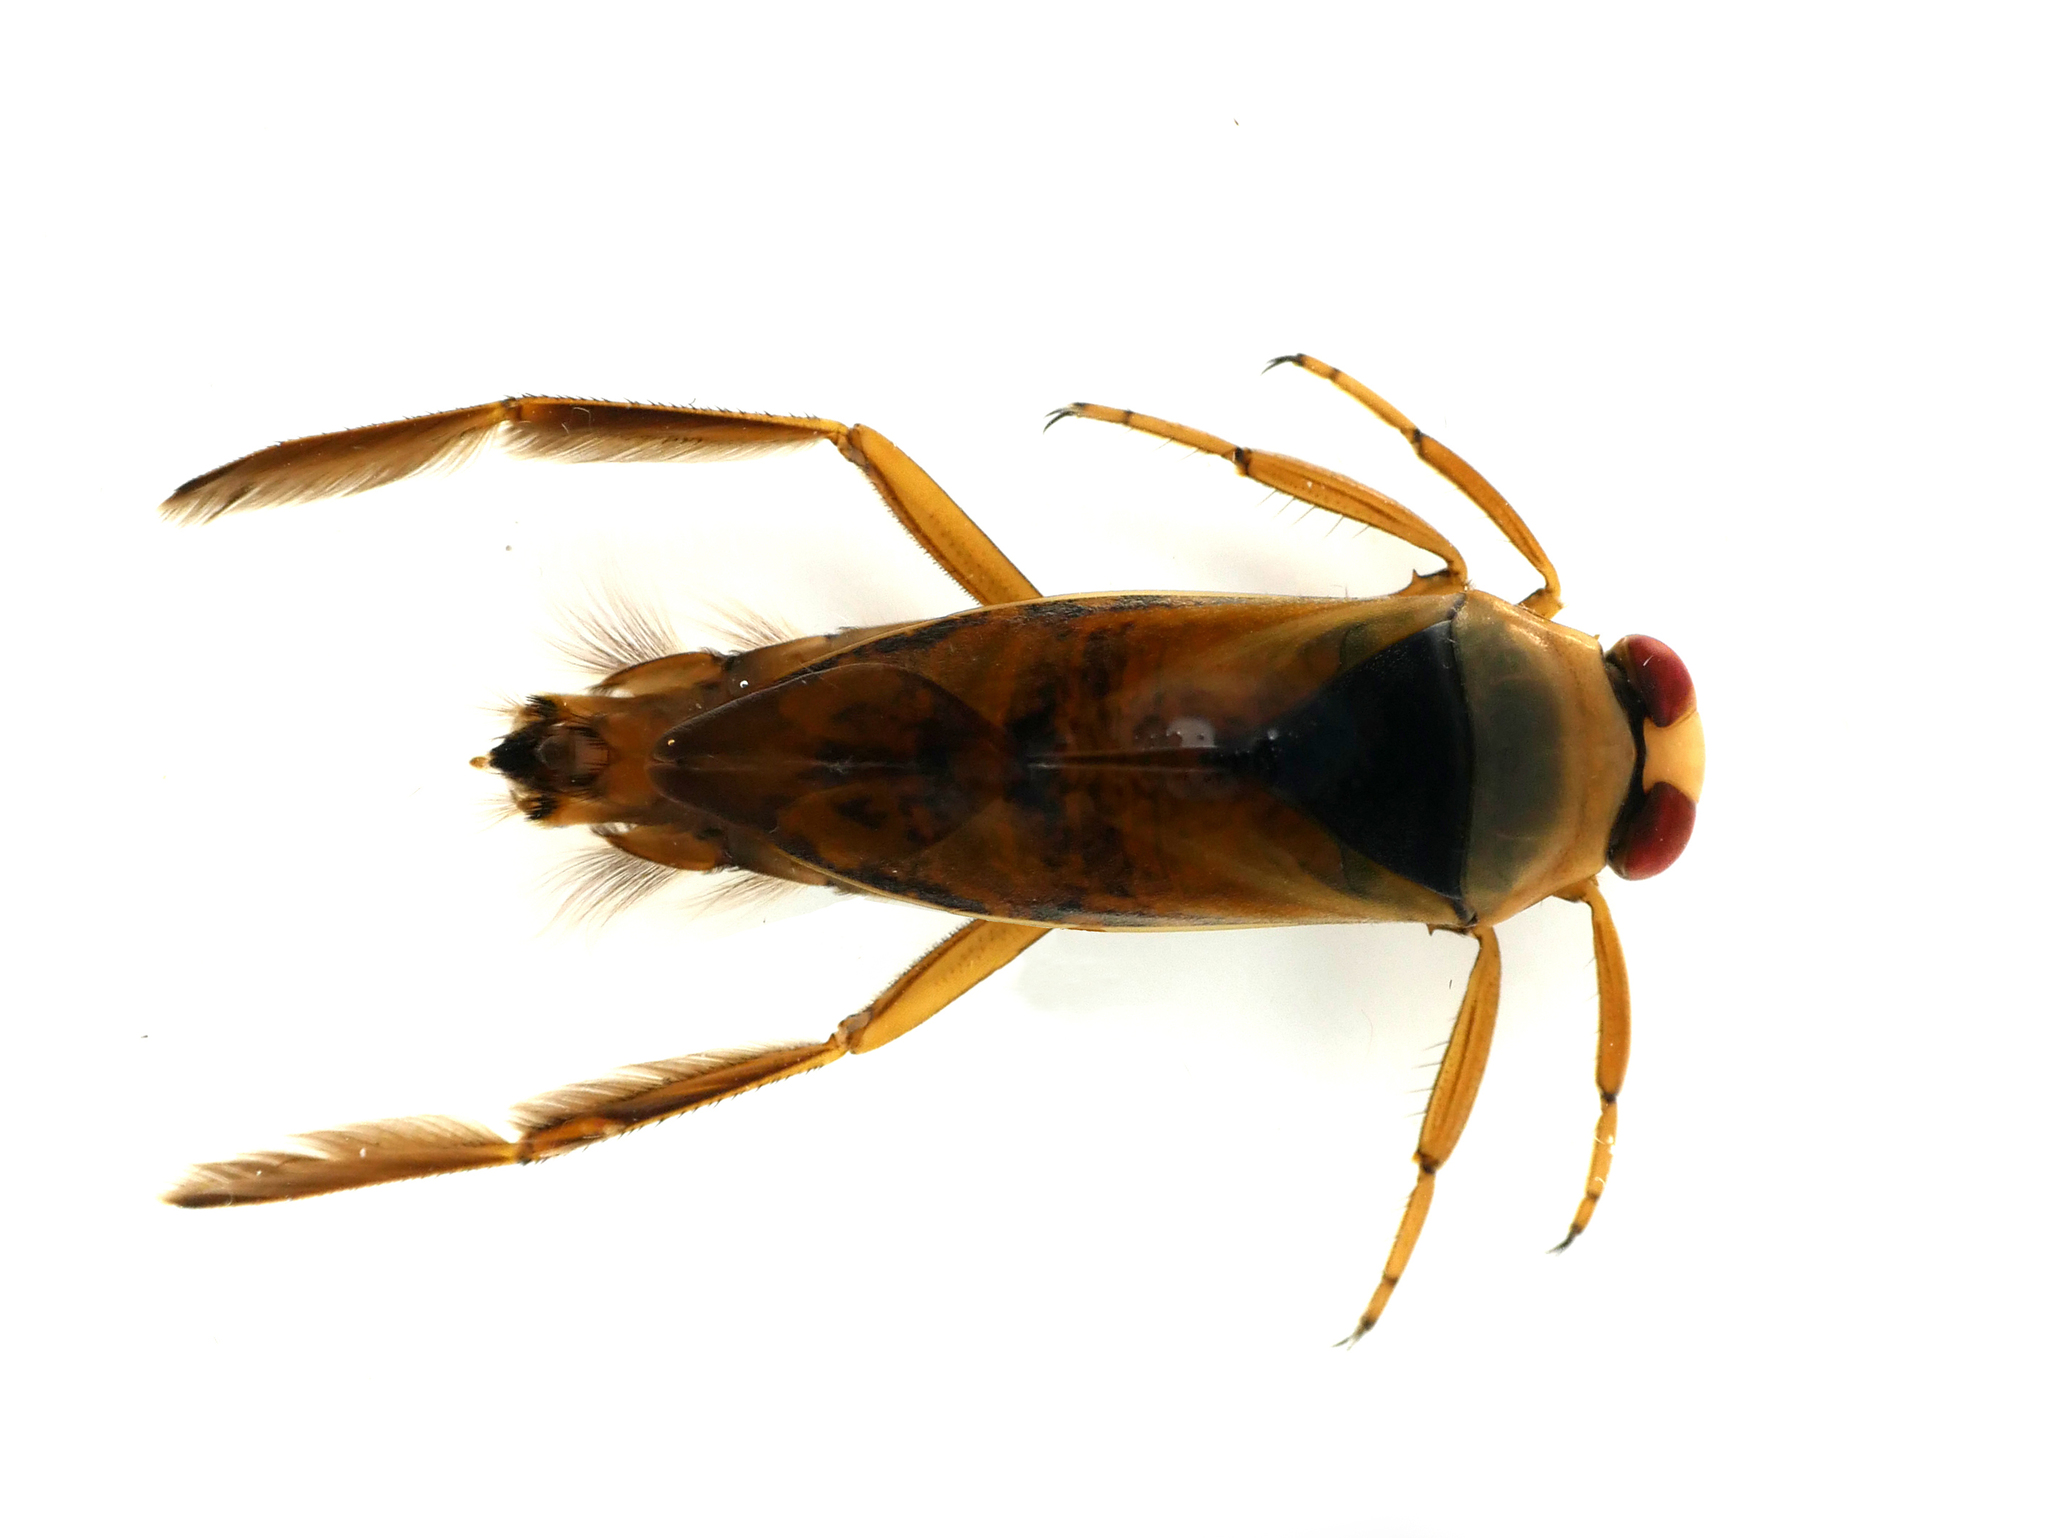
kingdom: Animalia
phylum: Arthropoda
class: Insecta
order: Hemiptera
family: Notonectidae
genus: Notonecta
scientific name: Notonecta glauca
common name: Common water-boatman
